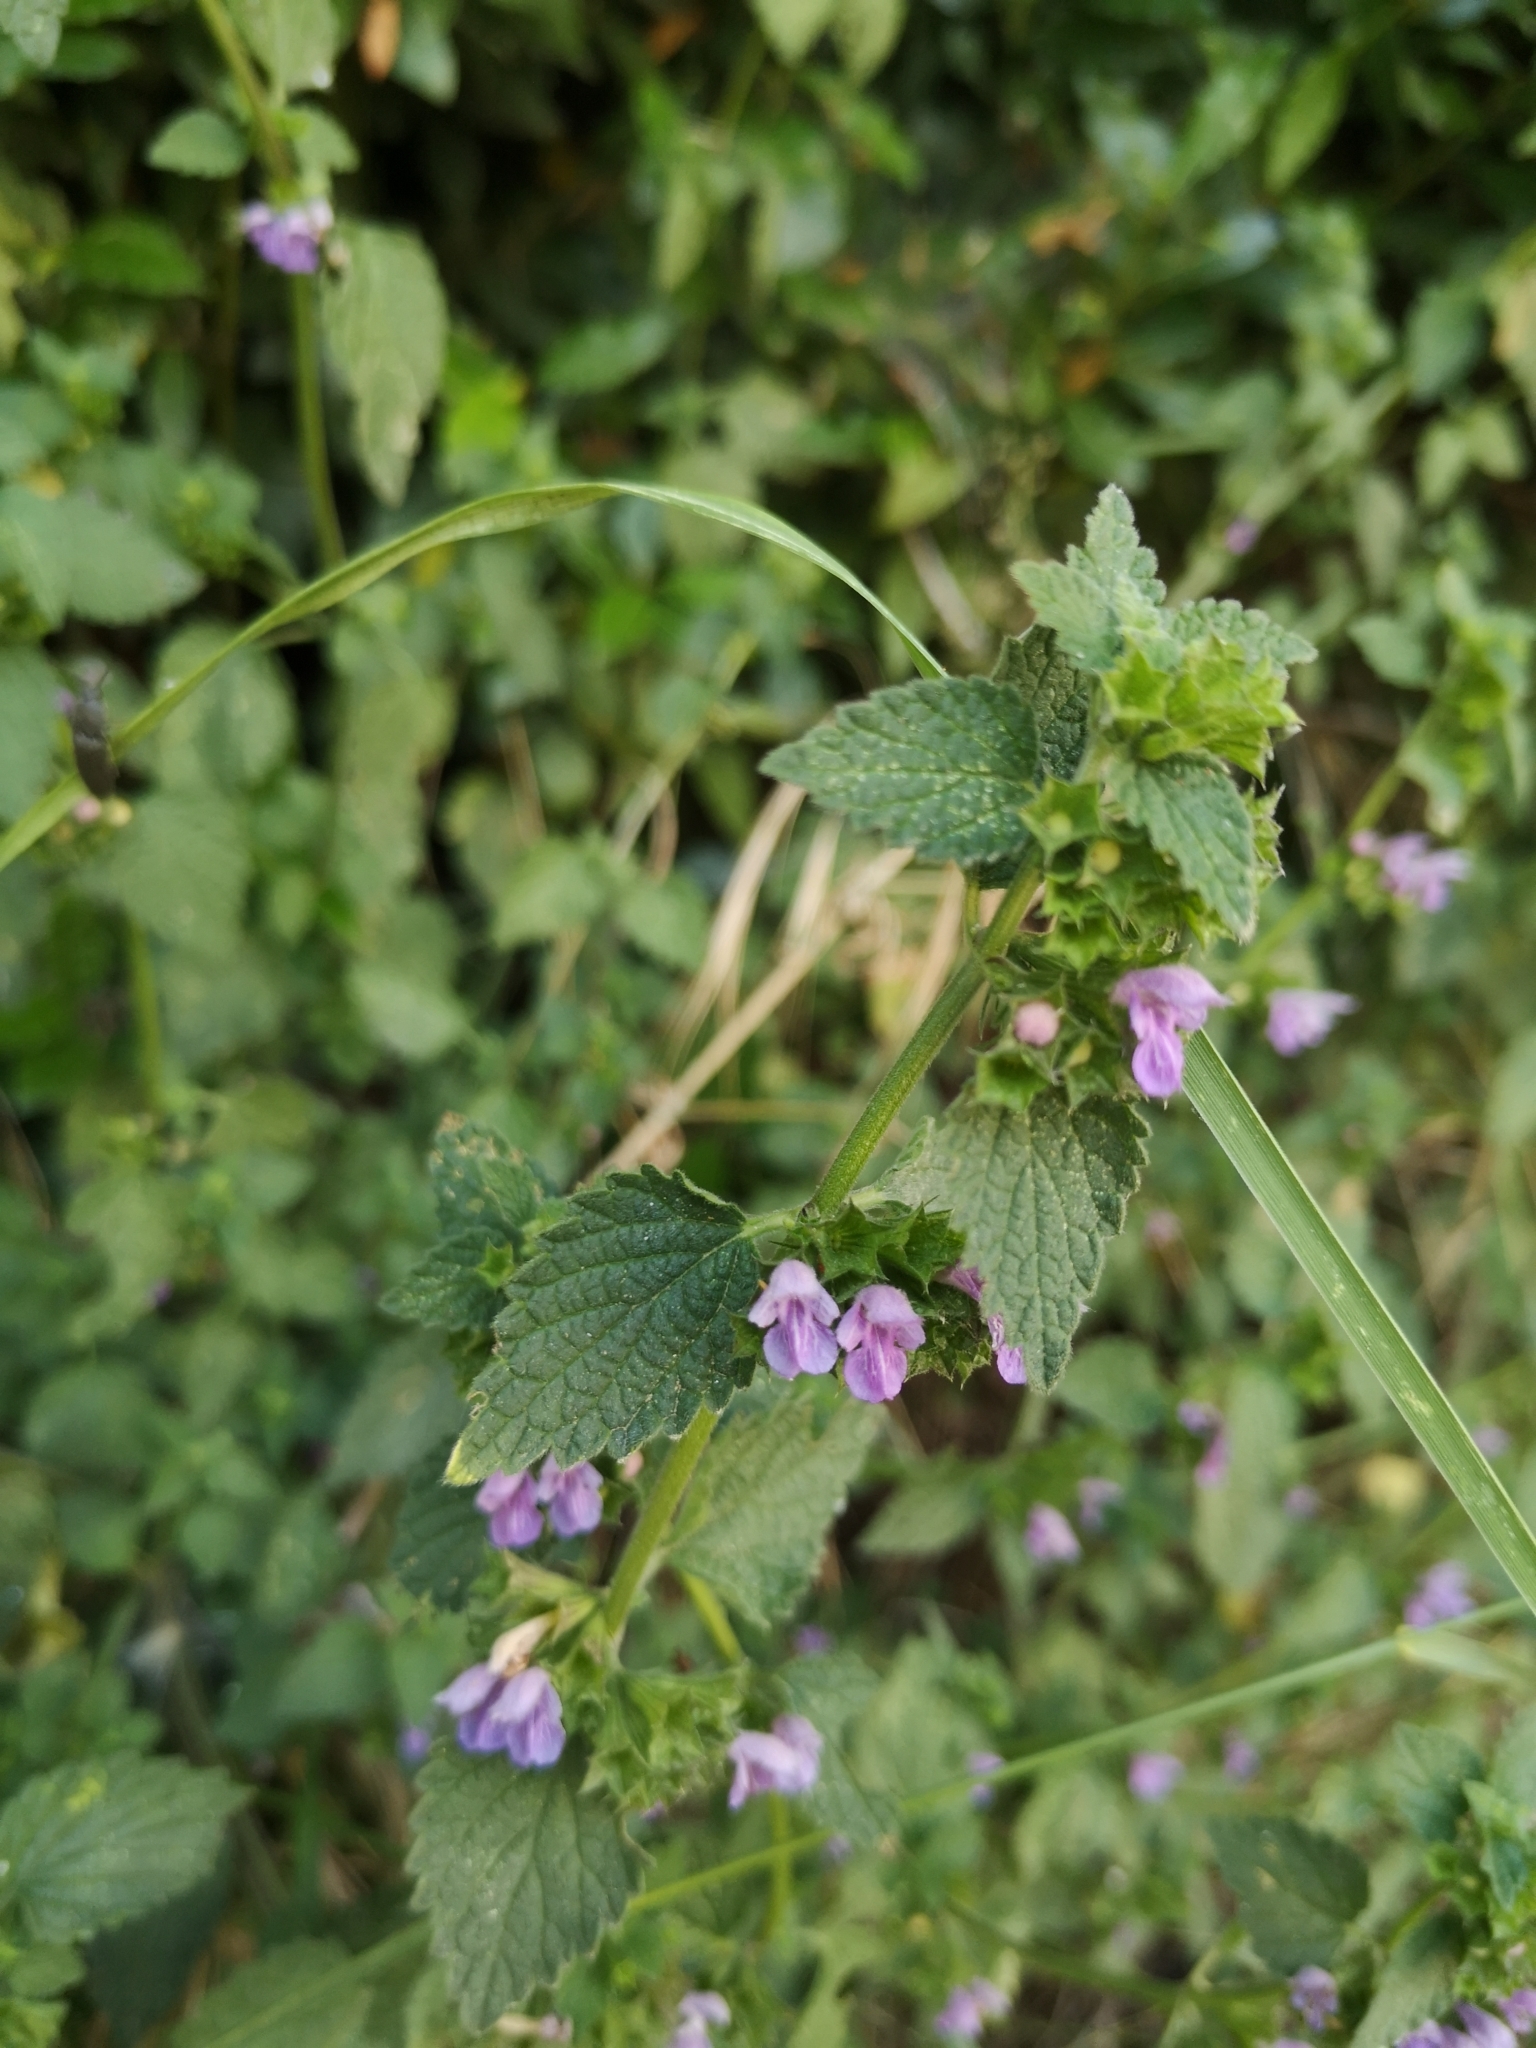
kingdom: Plantae
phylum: Tracheophyta
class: Magnoliopsida
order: Lamiales
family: Lamiaceae
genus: Ballota
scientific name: Ballota nigra
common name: Black horehound
